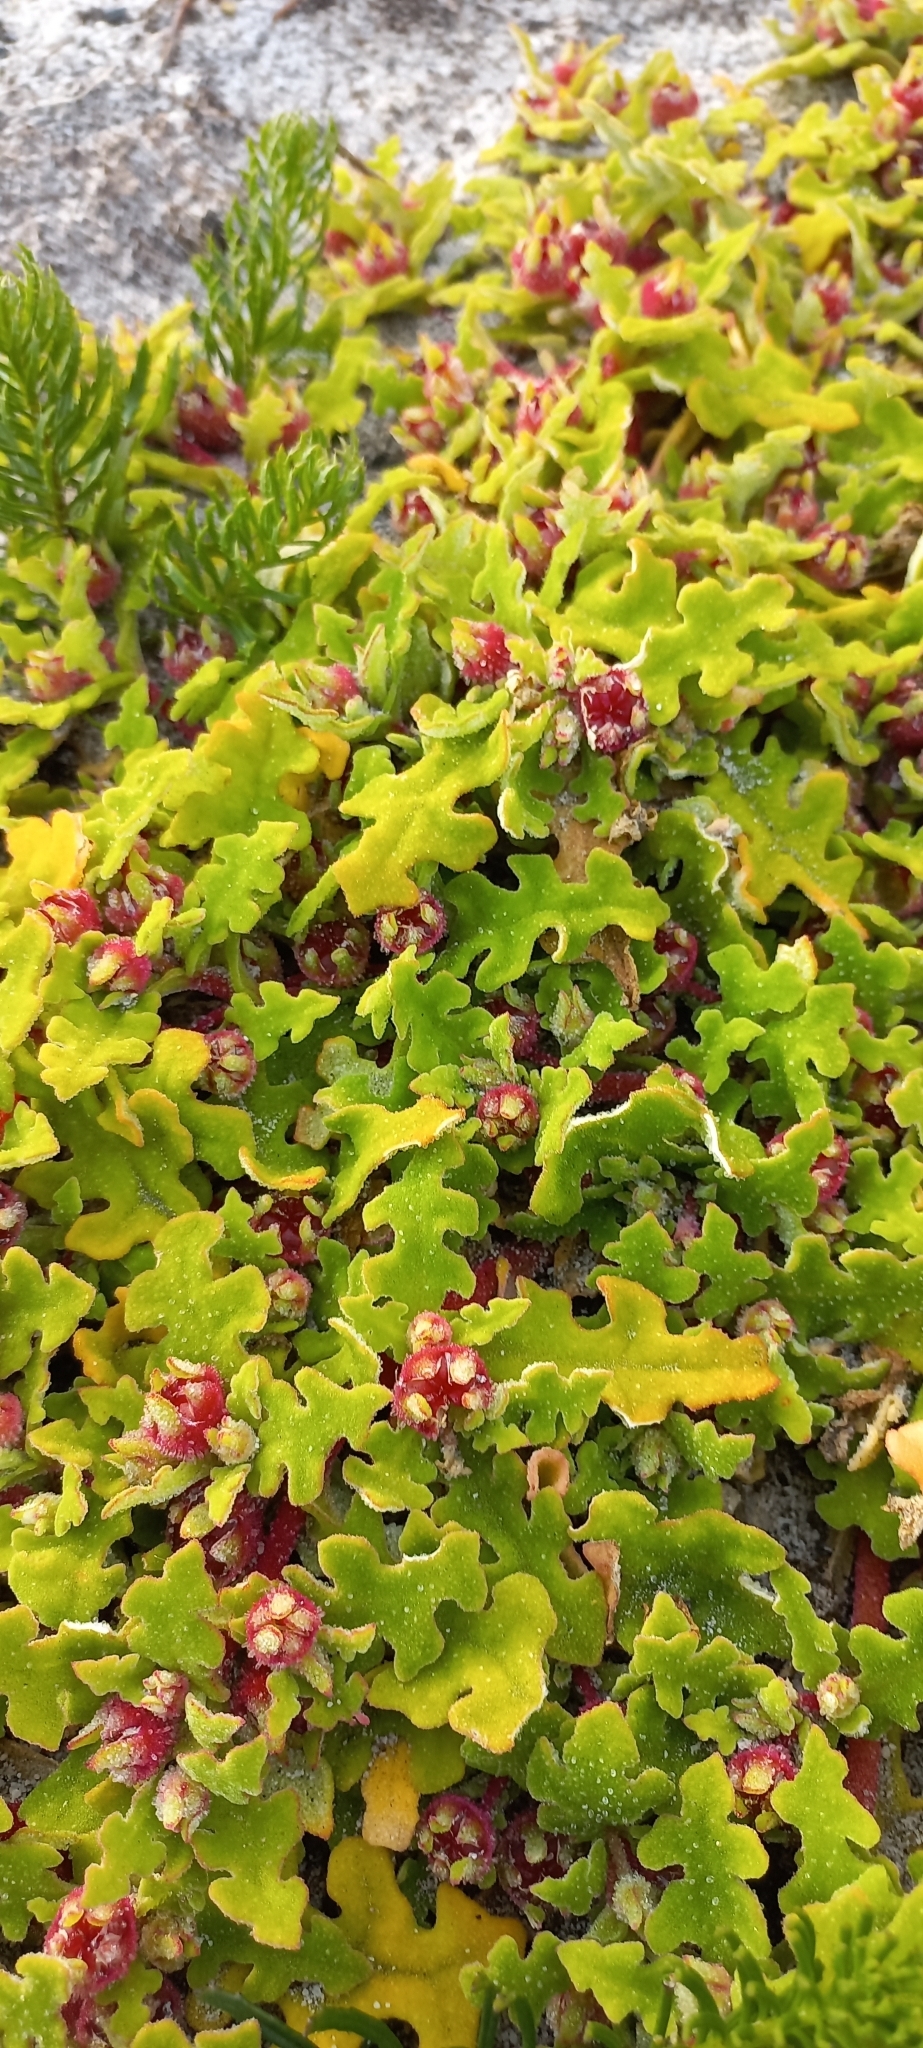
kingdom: Plantae
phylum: Tracheophyta
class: Magnoliopsida
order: Caryophyllales
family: Aizoaceae
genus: Cleretum
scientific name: Cleretum herrei
